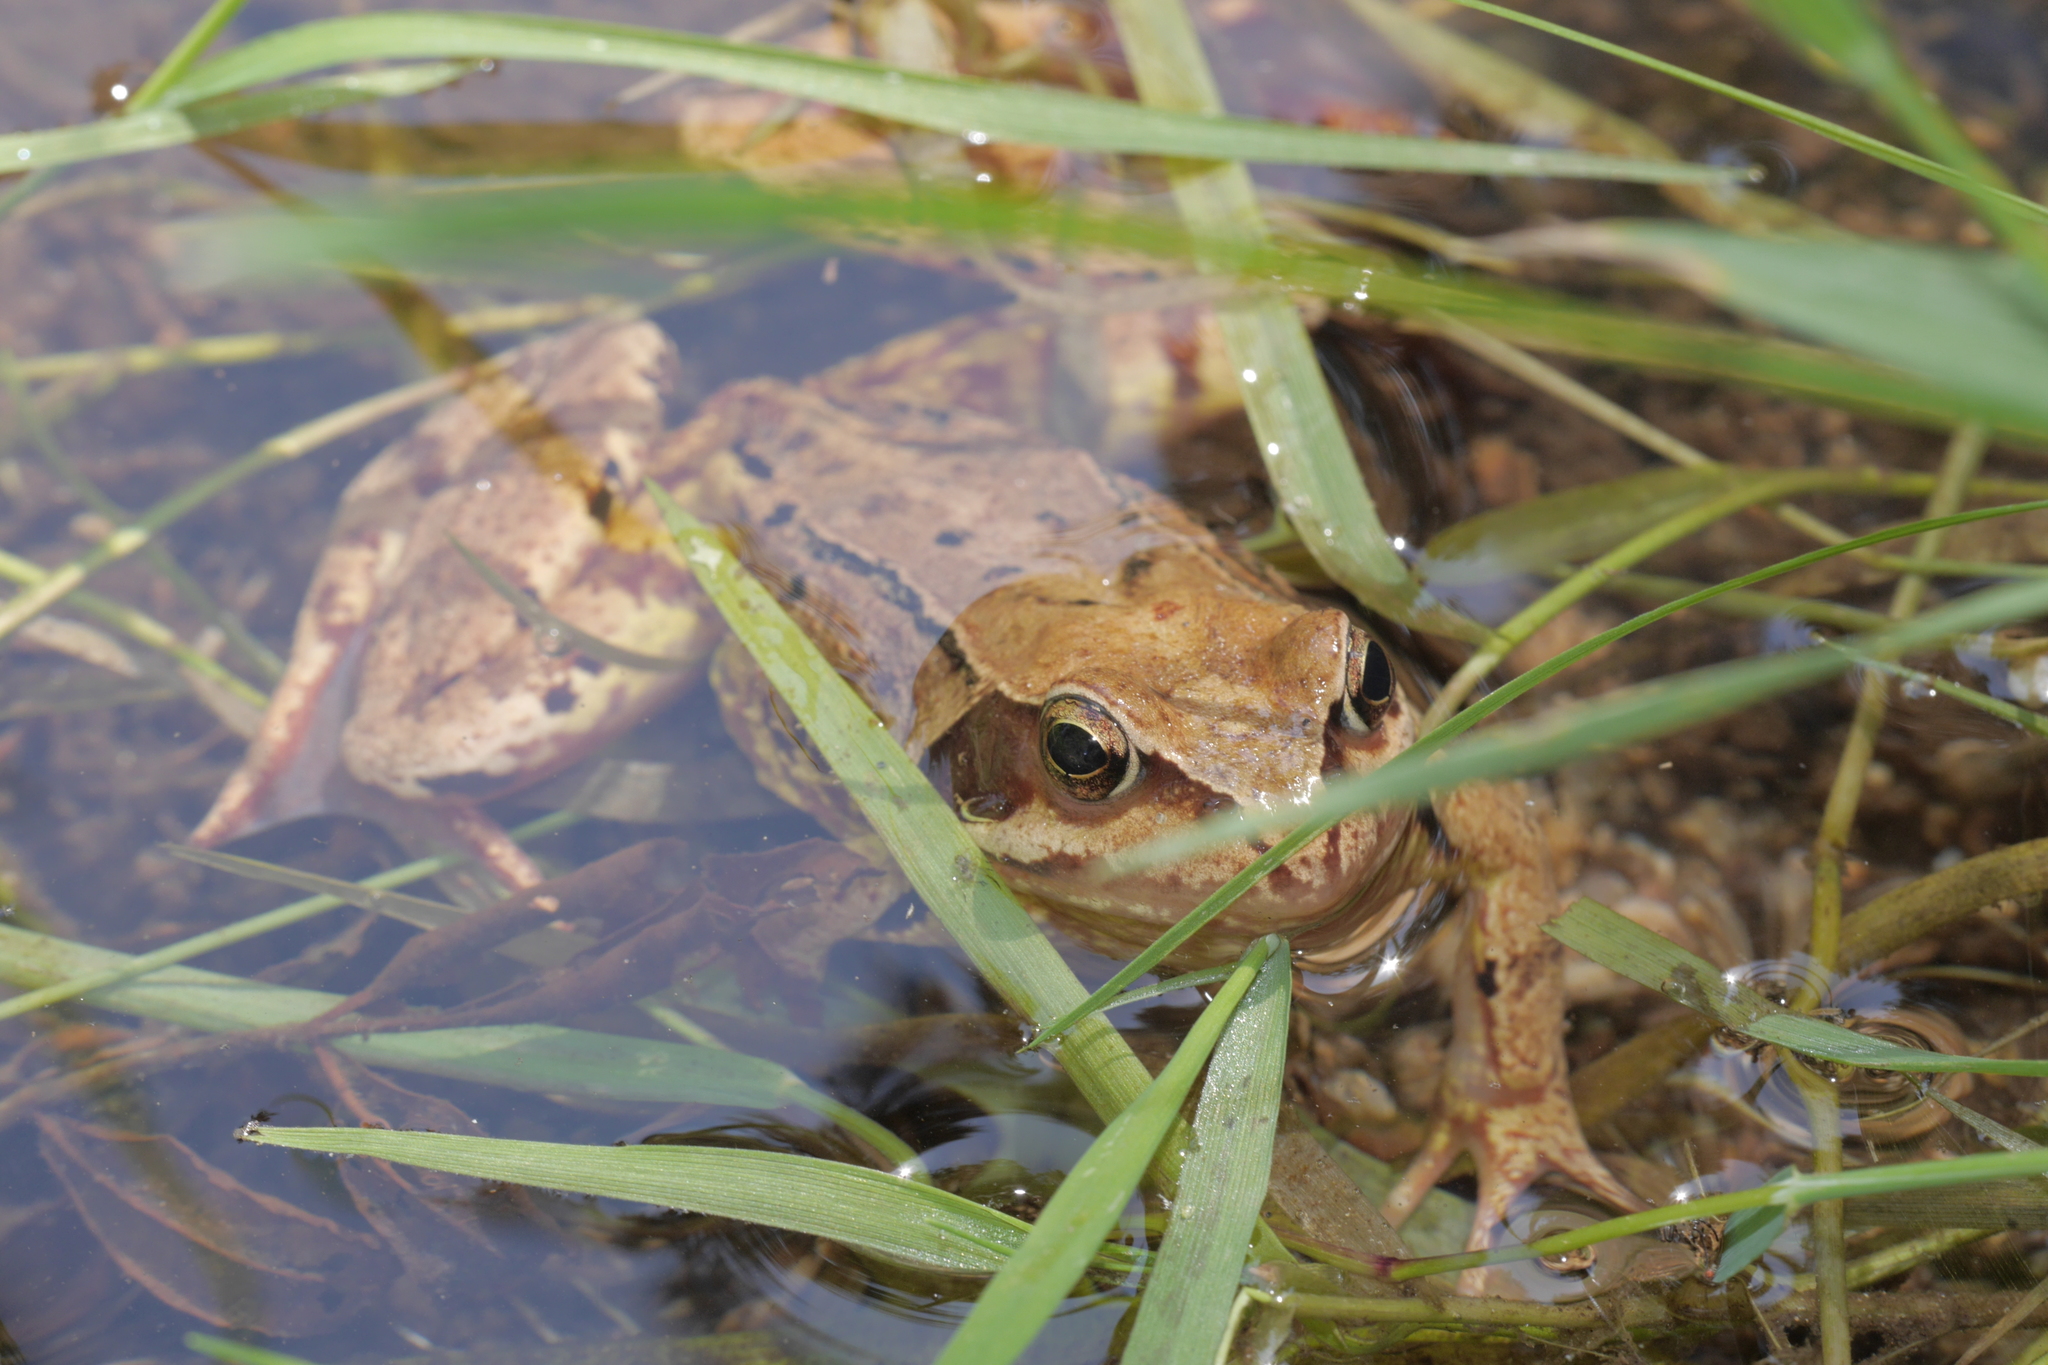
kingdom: Animalia
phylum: Chordata
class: Amphibia
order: Anura
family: Ranidae
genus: Rana
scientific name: Rana temporaria
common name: Common frog
